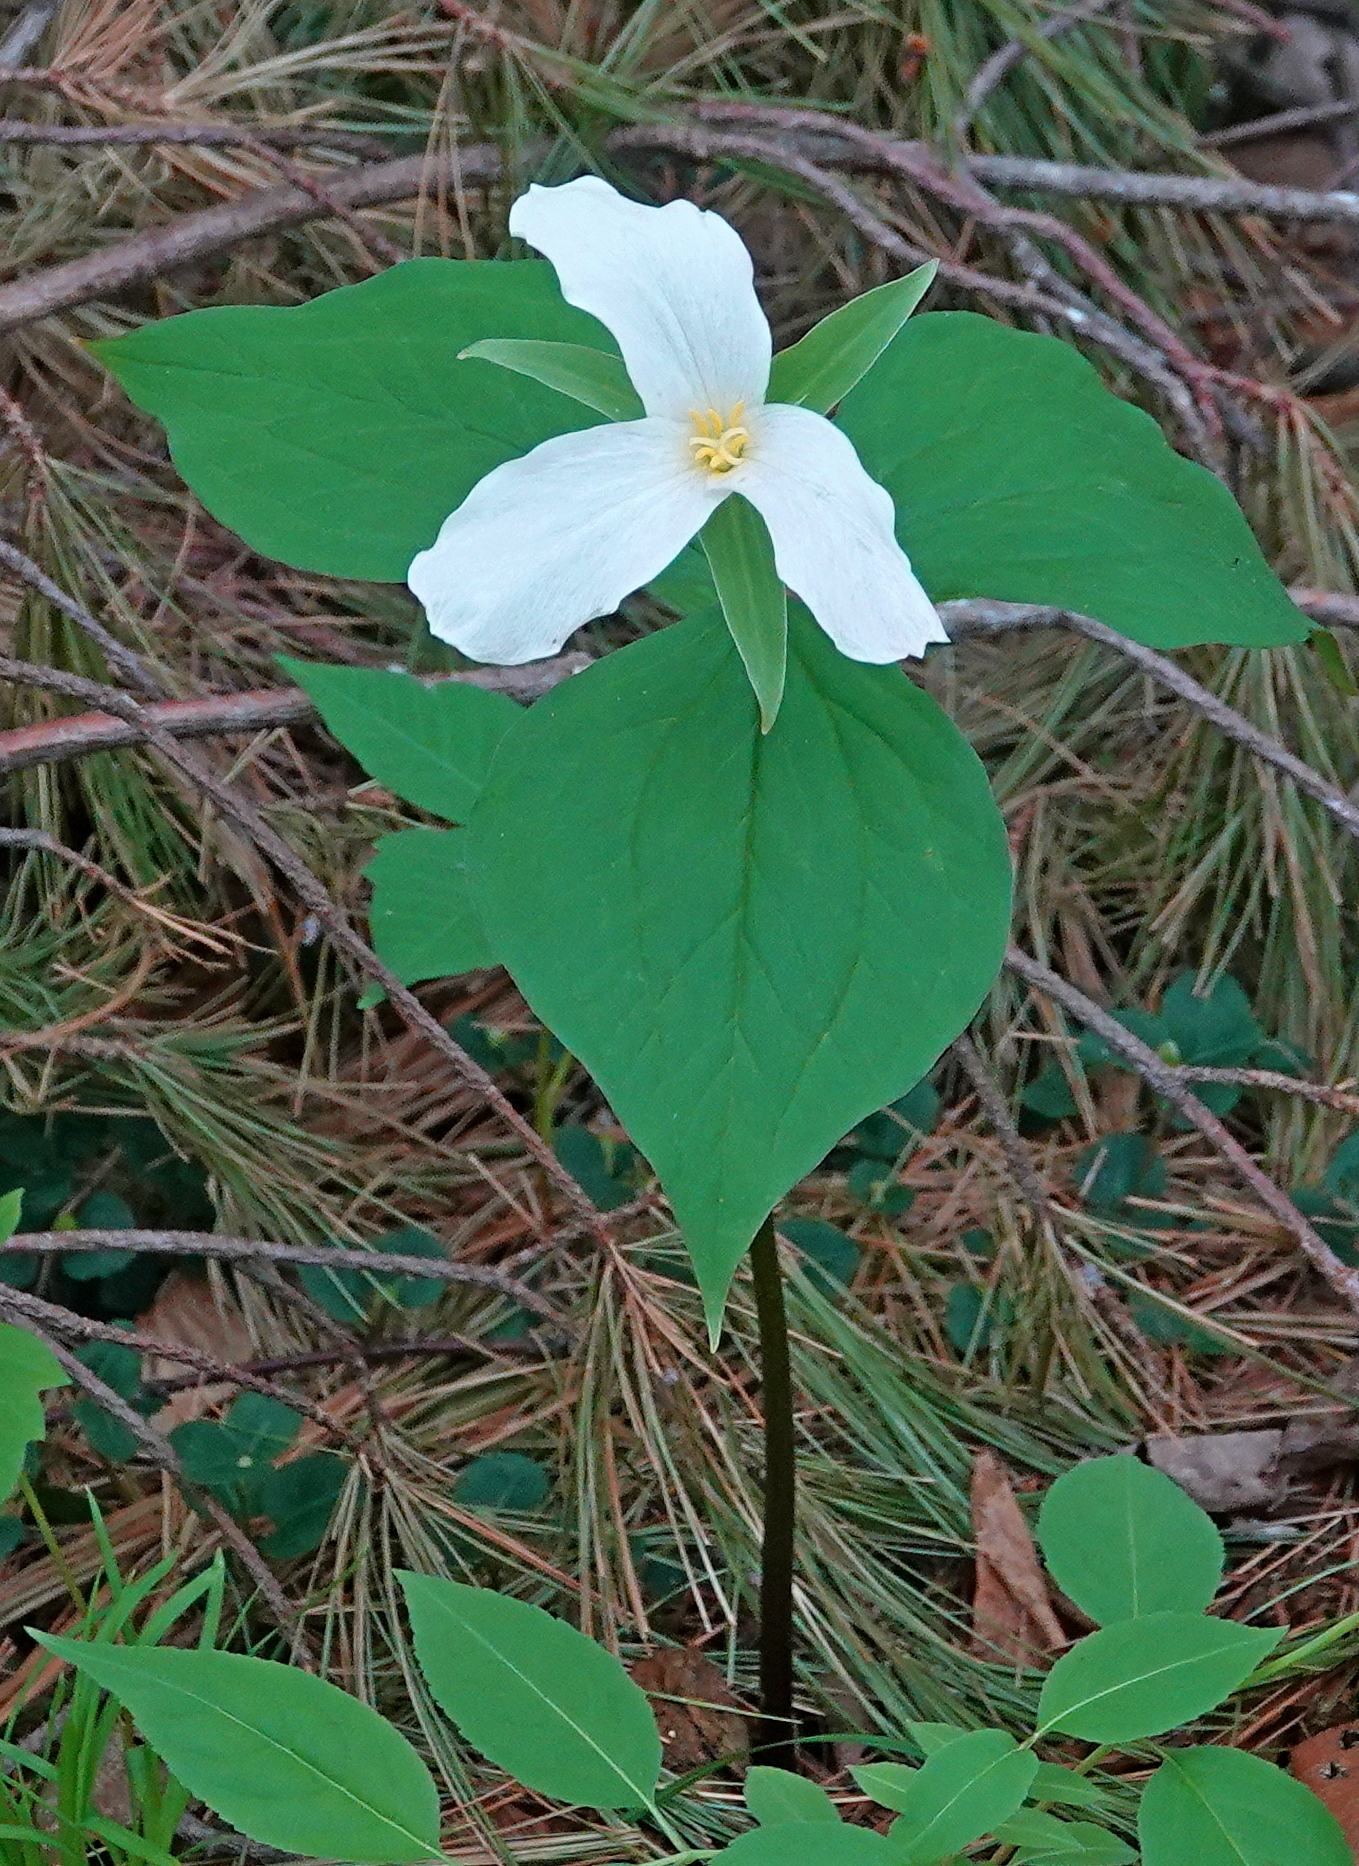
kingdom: Plantae
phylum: Tracheophyta
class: Liliopsida
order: Liliales
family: Melanthiaceae
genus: Trillium
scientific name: Trillium grandiflorum
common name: Great white trillium
